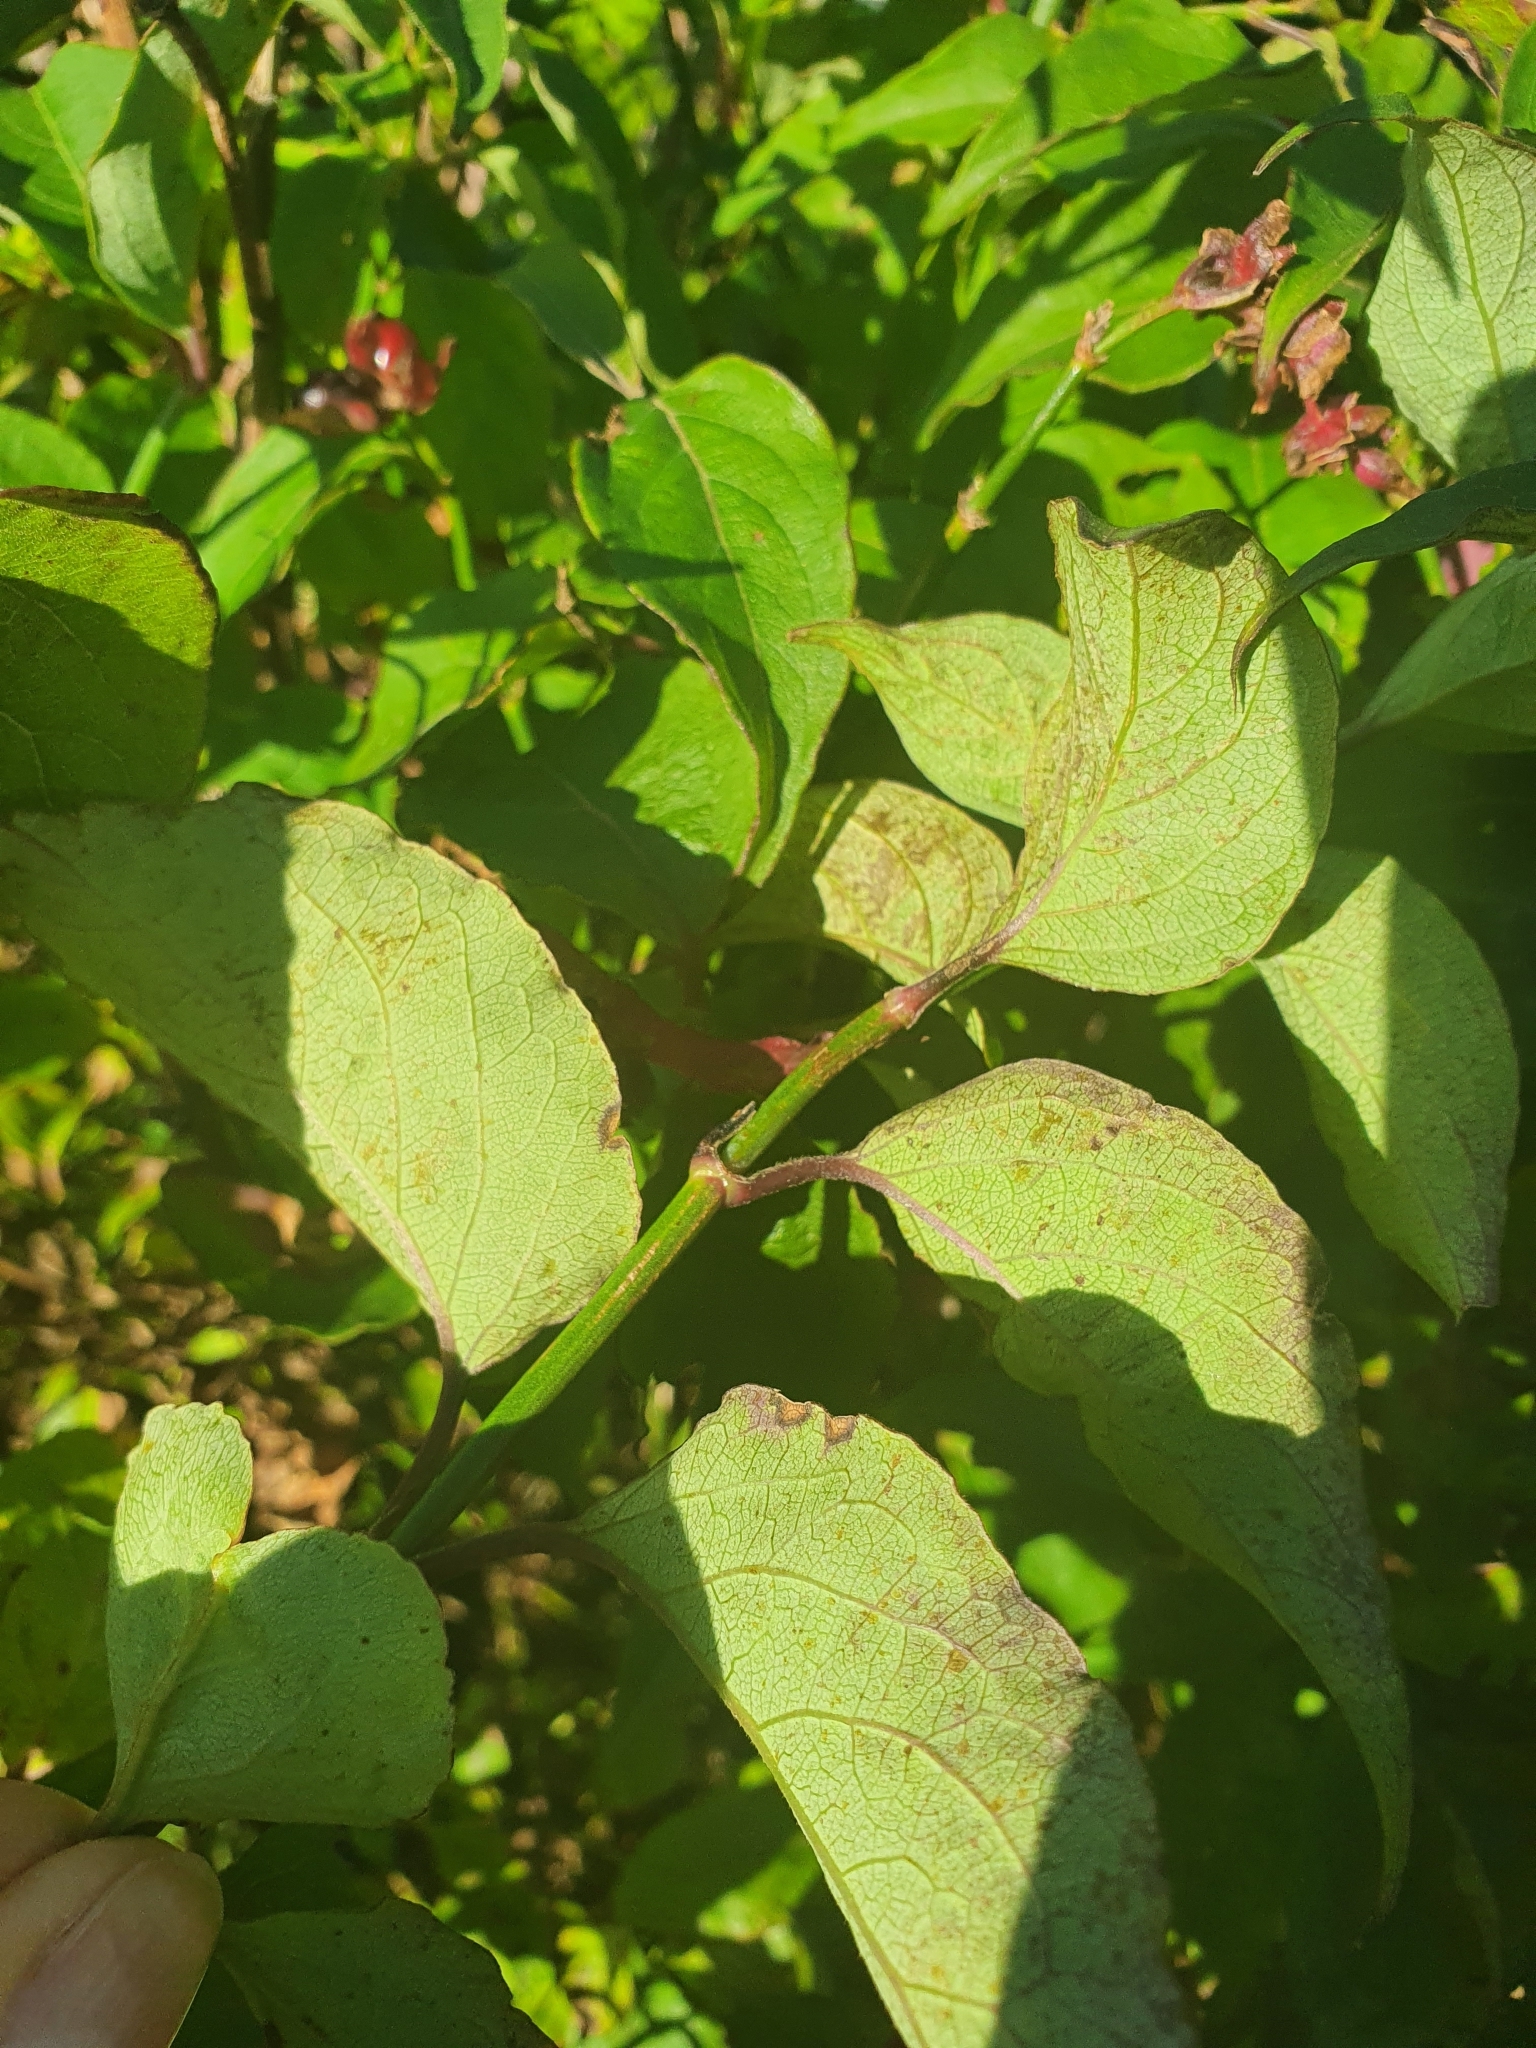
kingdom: Plantae
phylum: Tracheophyta
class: Magnoliopsida
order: Dipsacales
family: Caprifoliaceae
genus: Leycesteria
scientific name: Leycesteria formosa
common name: Himalayan honeysuckle
